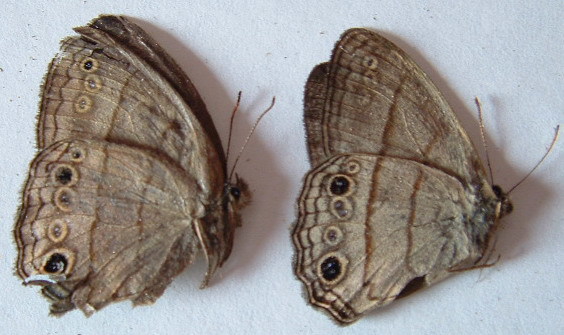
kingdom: Animalia
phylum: Arthropoda
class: Insecta
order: Lepidoptera
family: Nymphalidae
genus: Vareuptychia
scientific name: Vareuptychia similis
